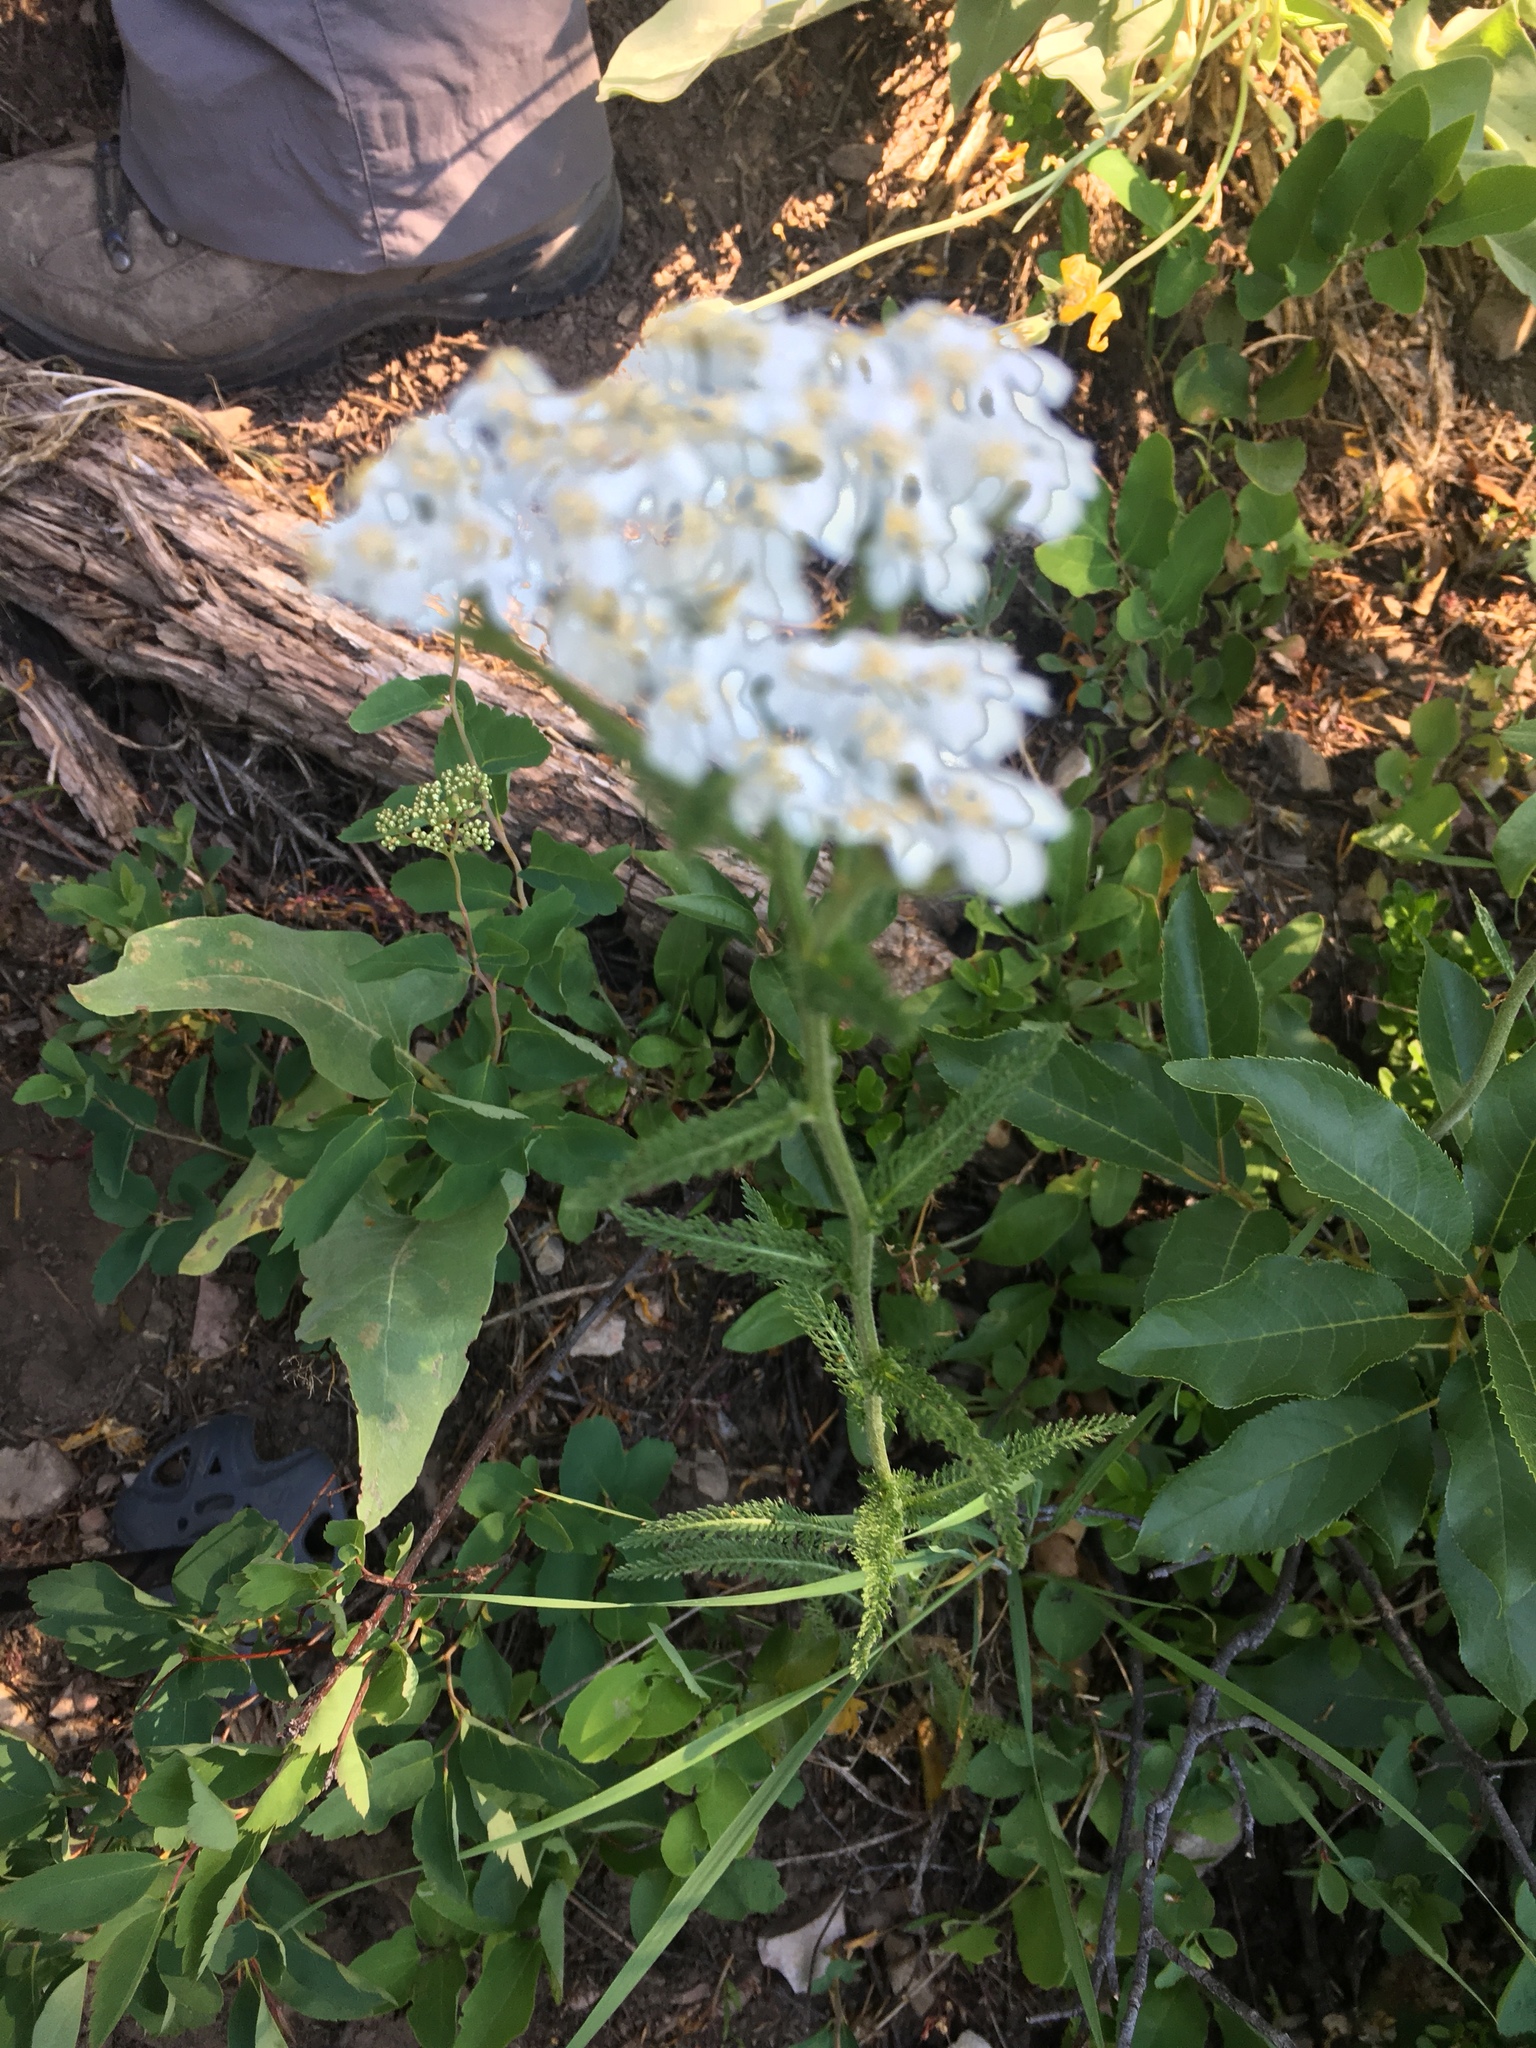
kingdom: Plantae
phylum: Tracheophyta
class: Magnoliopsida
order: Asterales
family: Asteraceae
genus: Achillea
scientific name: Achillea millefolium
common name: Yarrow
